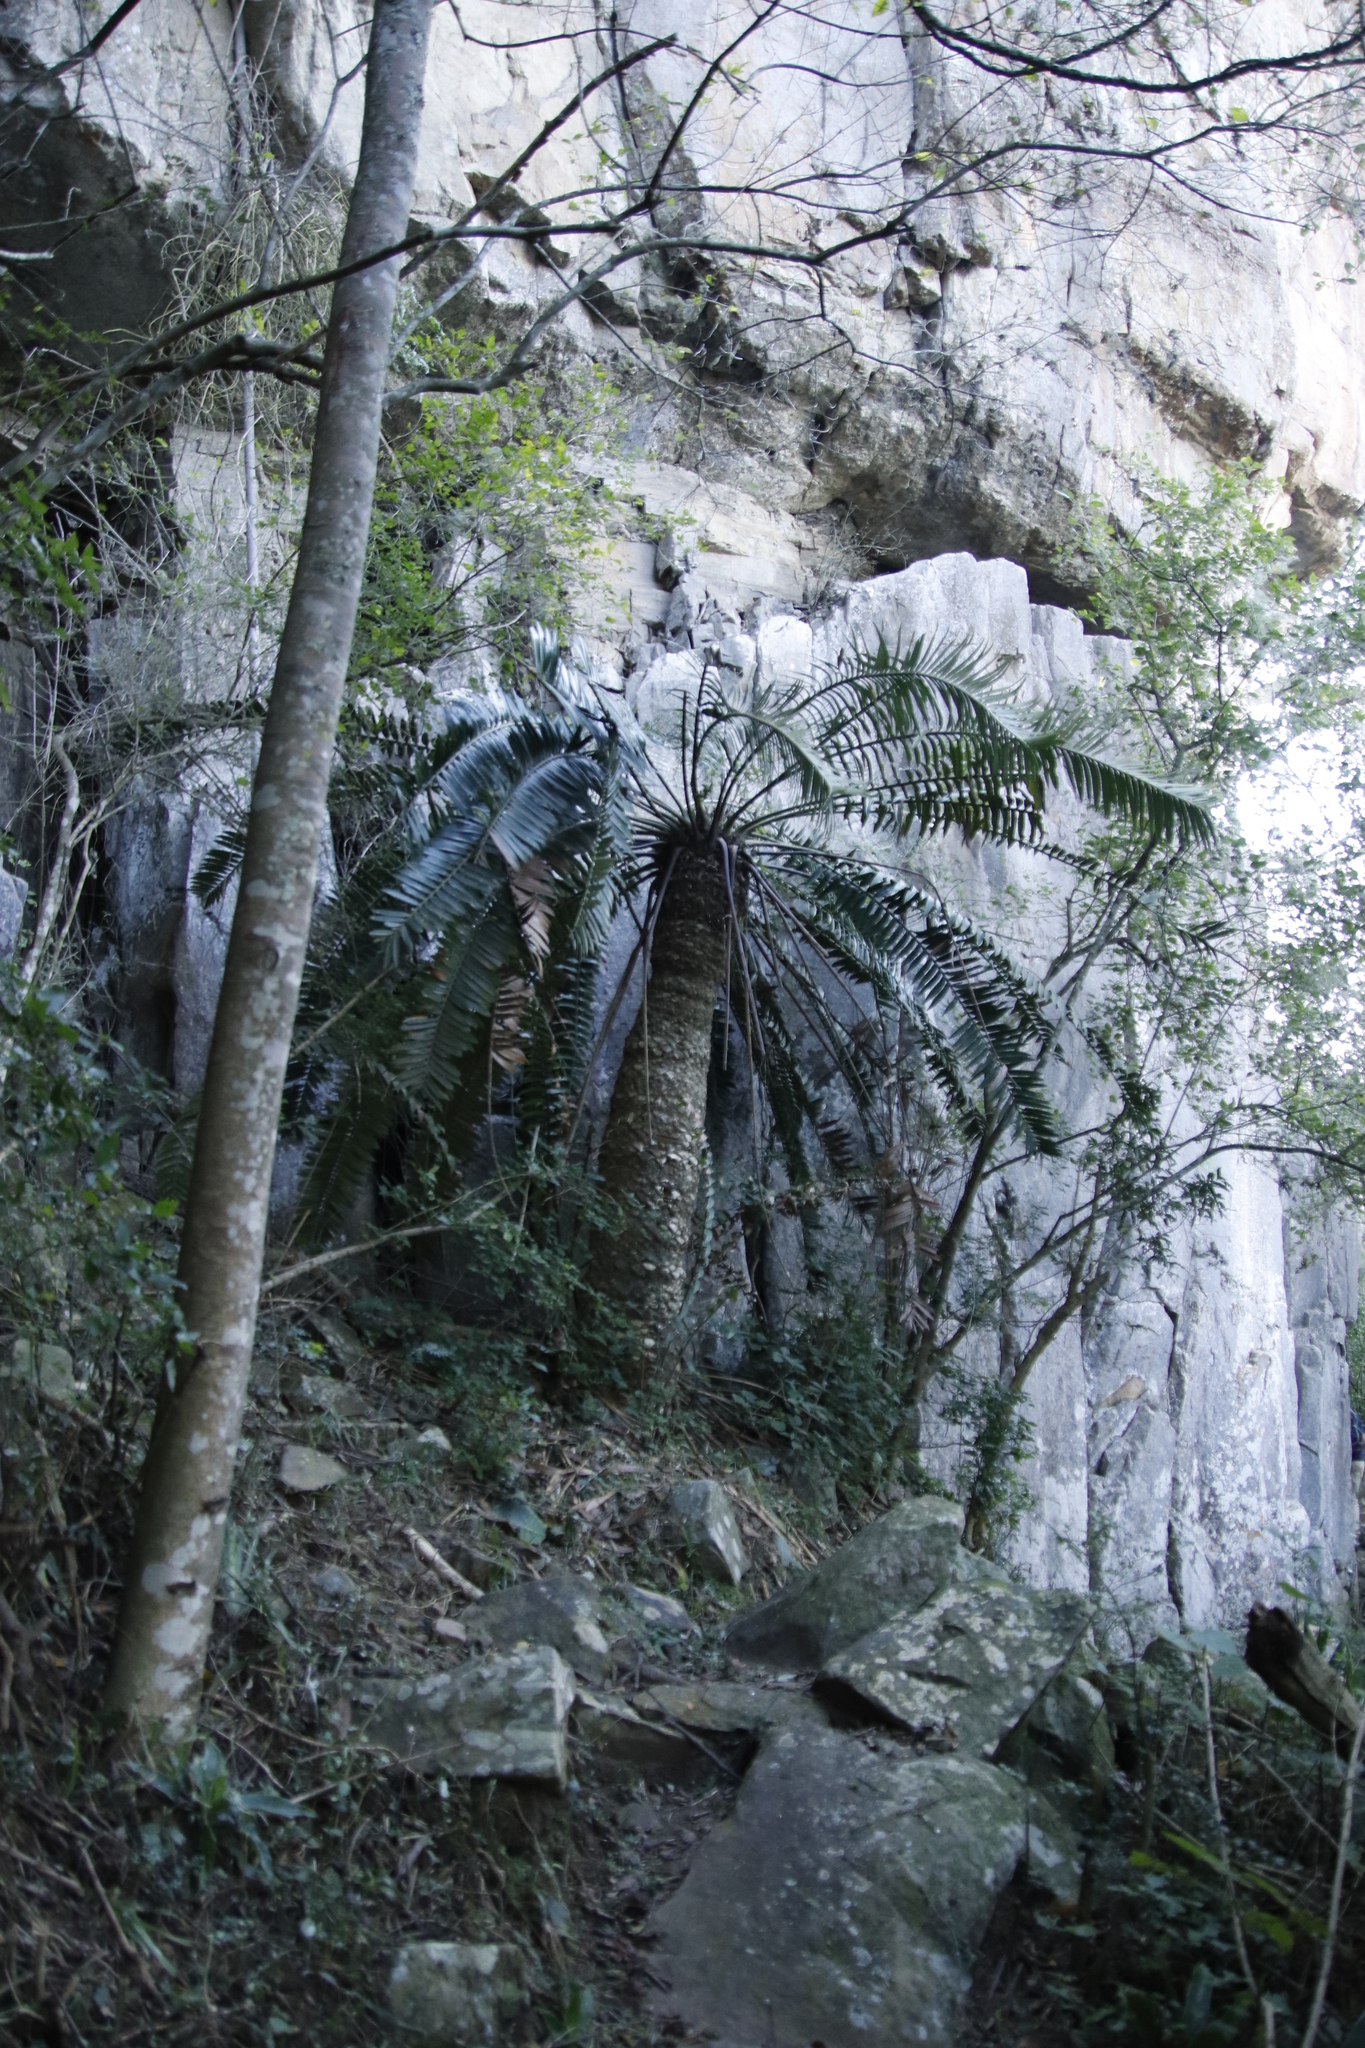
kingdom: Plantae
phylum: Tracheophyta
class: Cycadopsida
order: Cycadales
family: Zamiaceae
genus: Encephalartos
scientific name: Encephalartos natalensis
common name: Natal cycad
